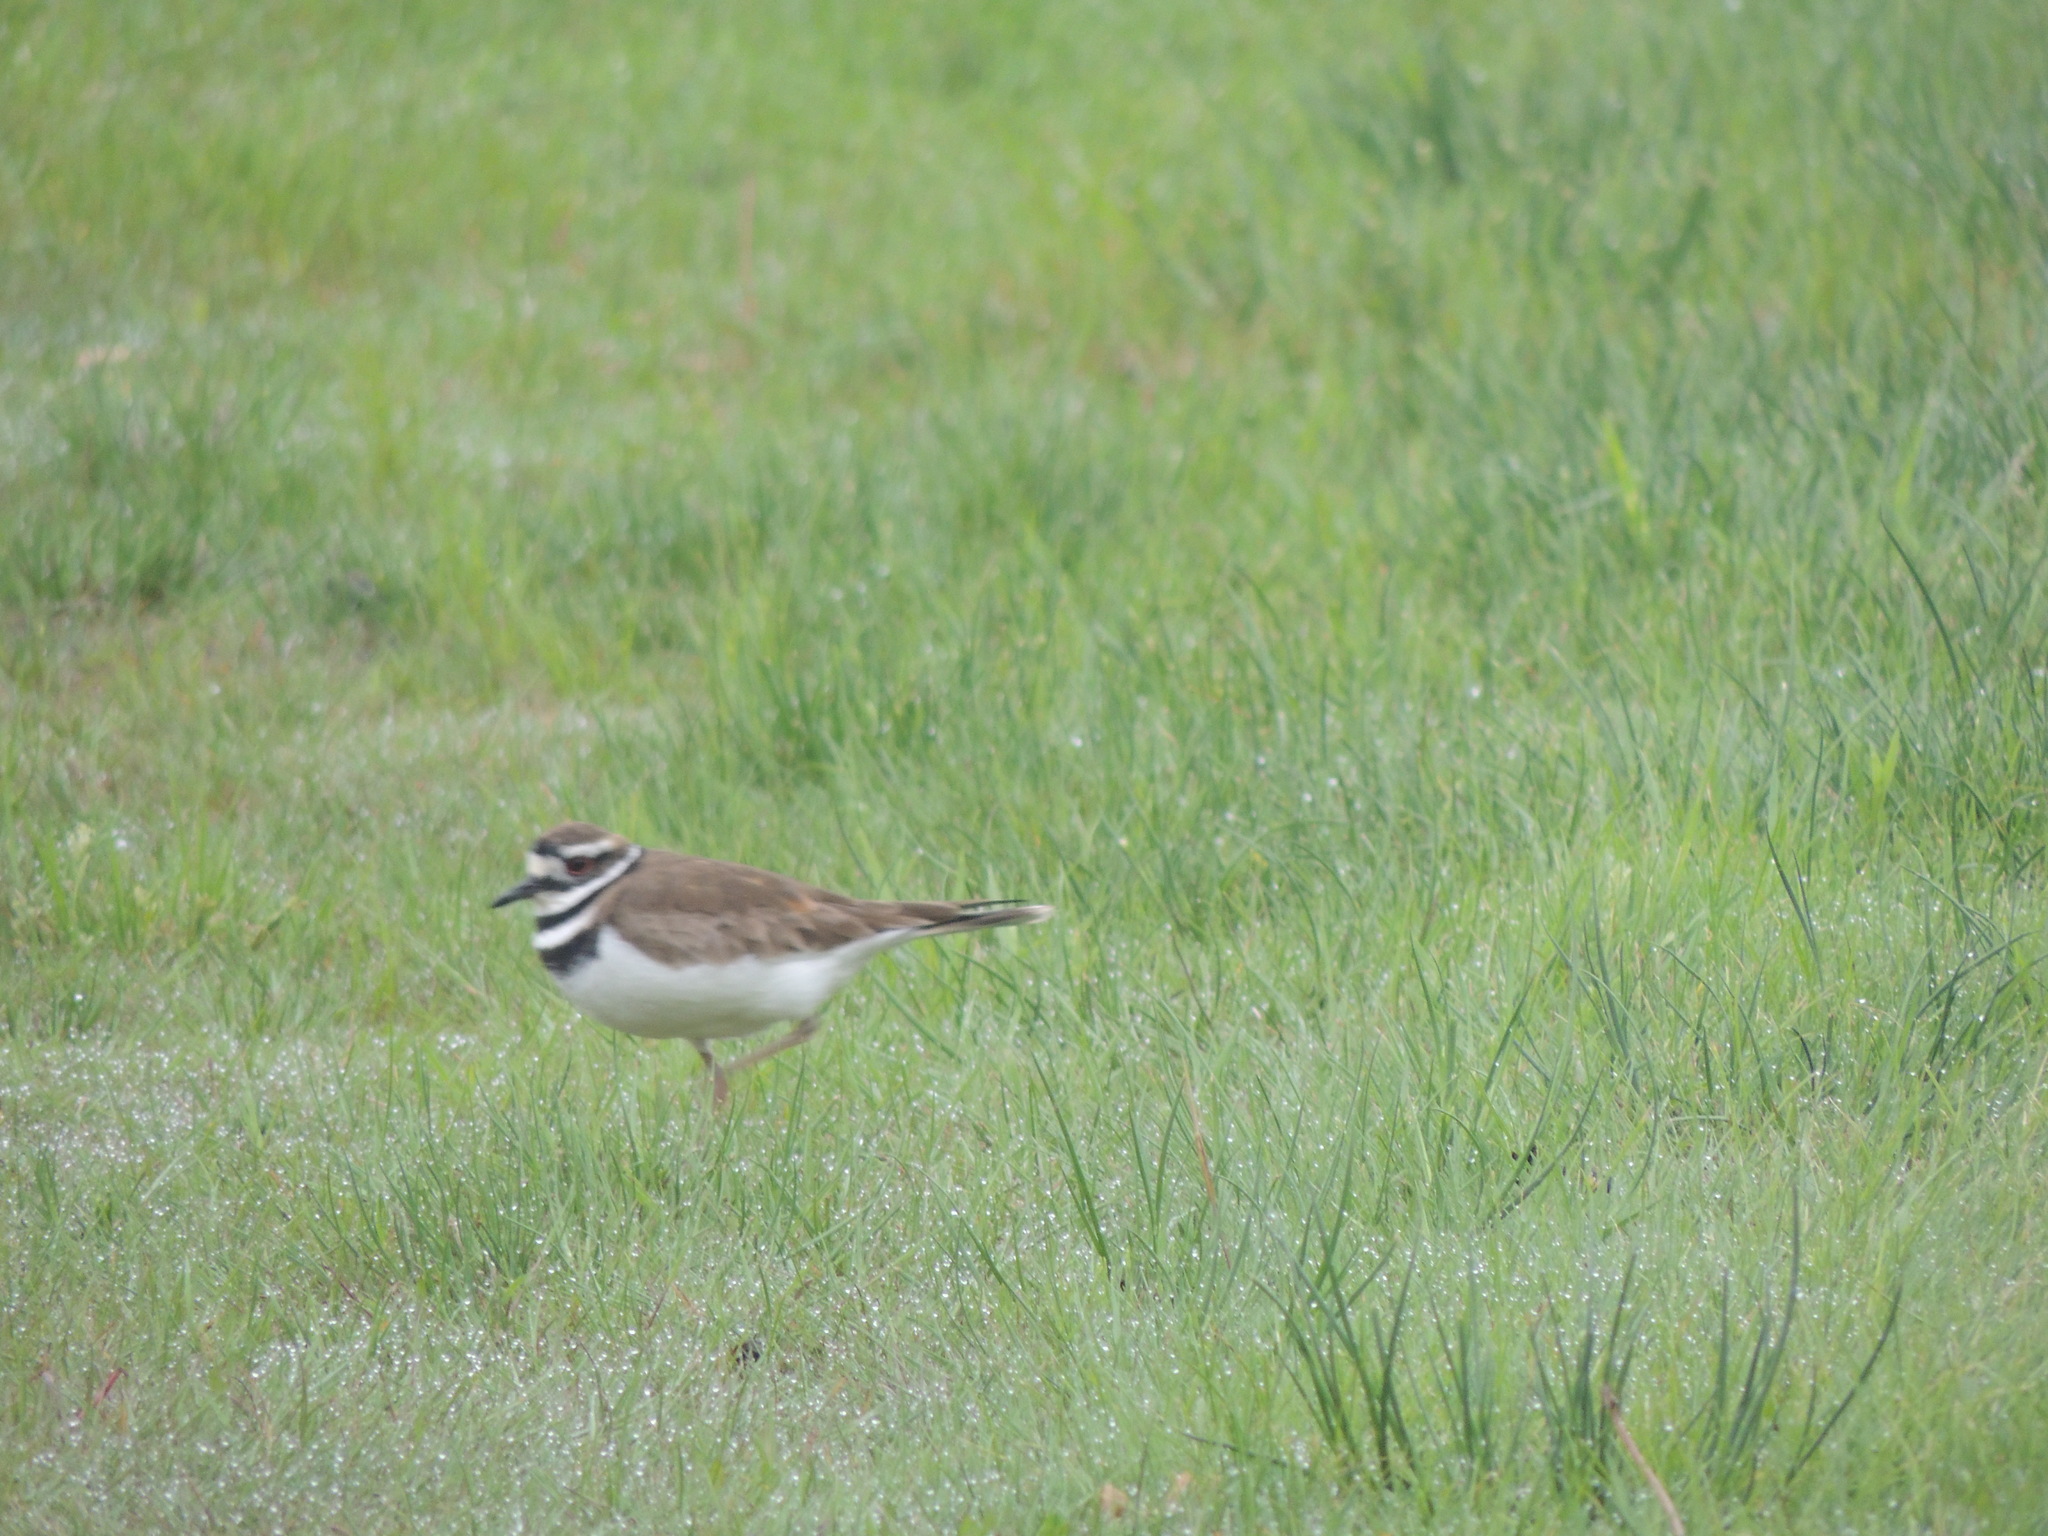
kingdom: Animalia
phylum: Chordata
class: Aves
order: Charadriiformes
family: Charadriidae
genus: Charadrius
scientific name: Charadrius vociferus
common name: Killdeer
